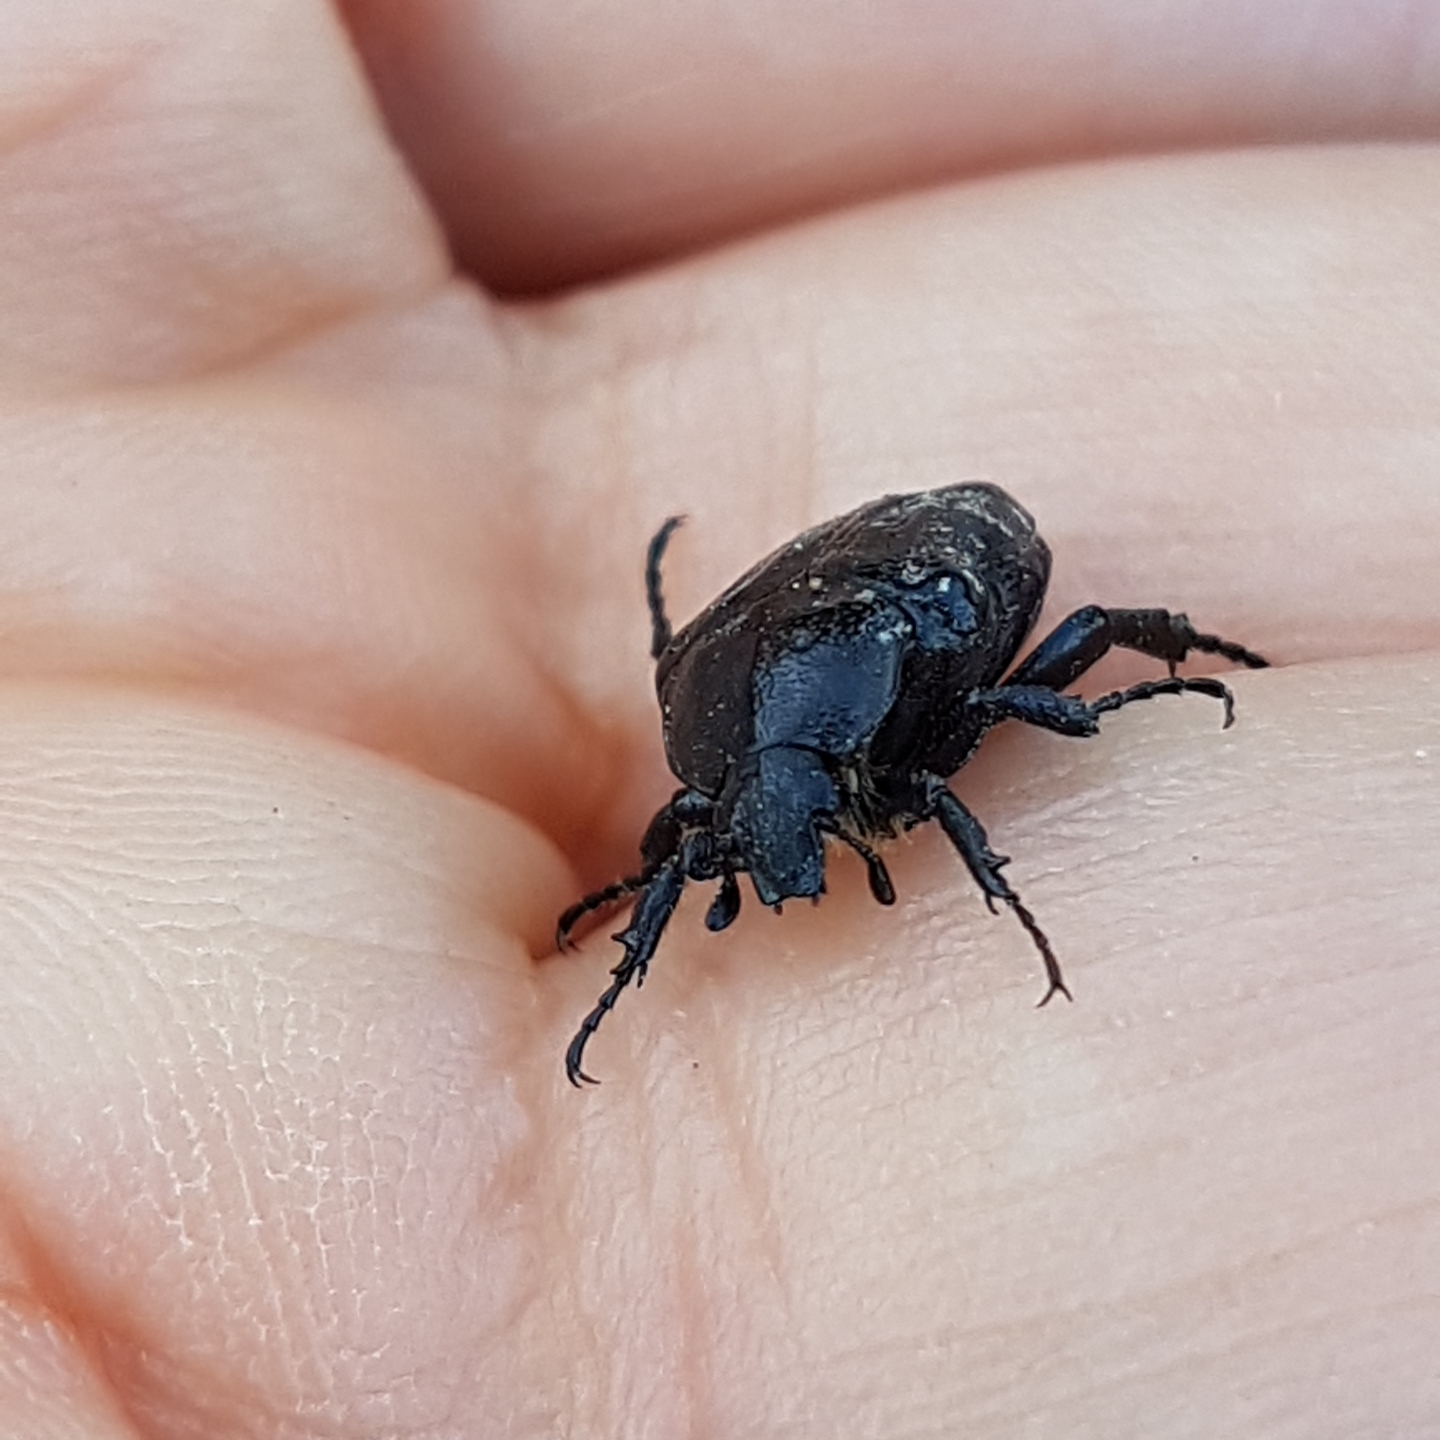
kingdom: Animalia
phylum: Arthropoda
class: Insecta
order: Coleoptera
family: Scarabaeidae
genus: Oxythyrea
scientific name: Oxythyrea funesta
